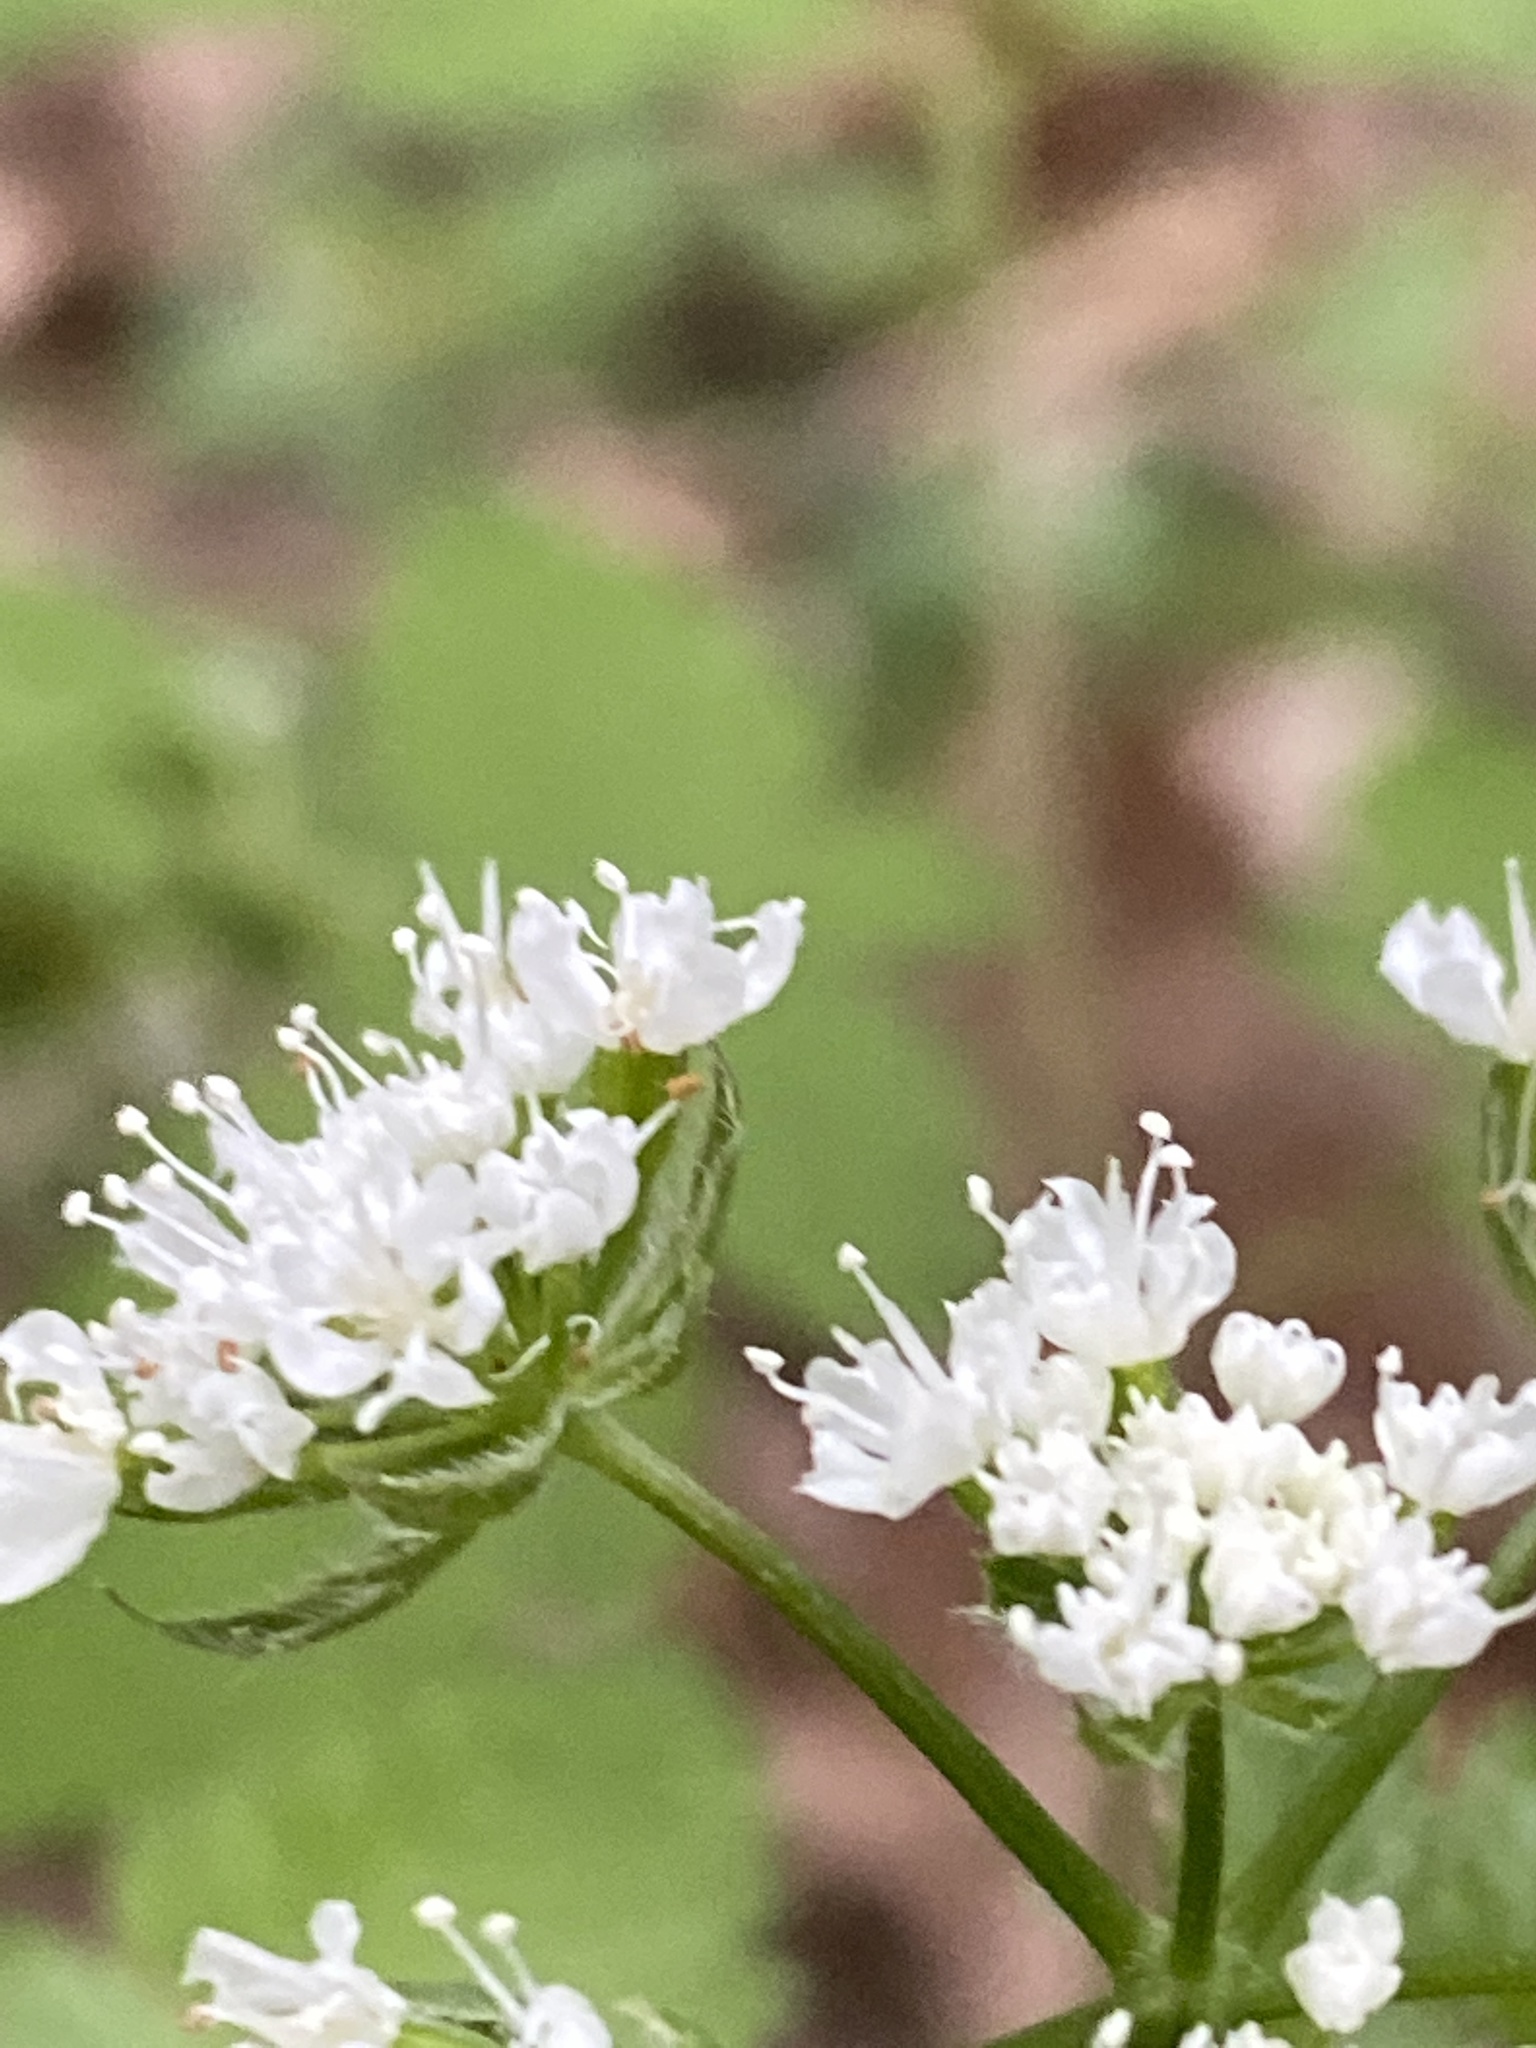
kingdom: Plantae
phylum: Tracheophyta
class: Magnoliopsida
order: Apiales
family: Apiaceae
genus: Osmorhiza
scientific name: Osmorhiza longistylis
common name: Smooth sweet cicely
